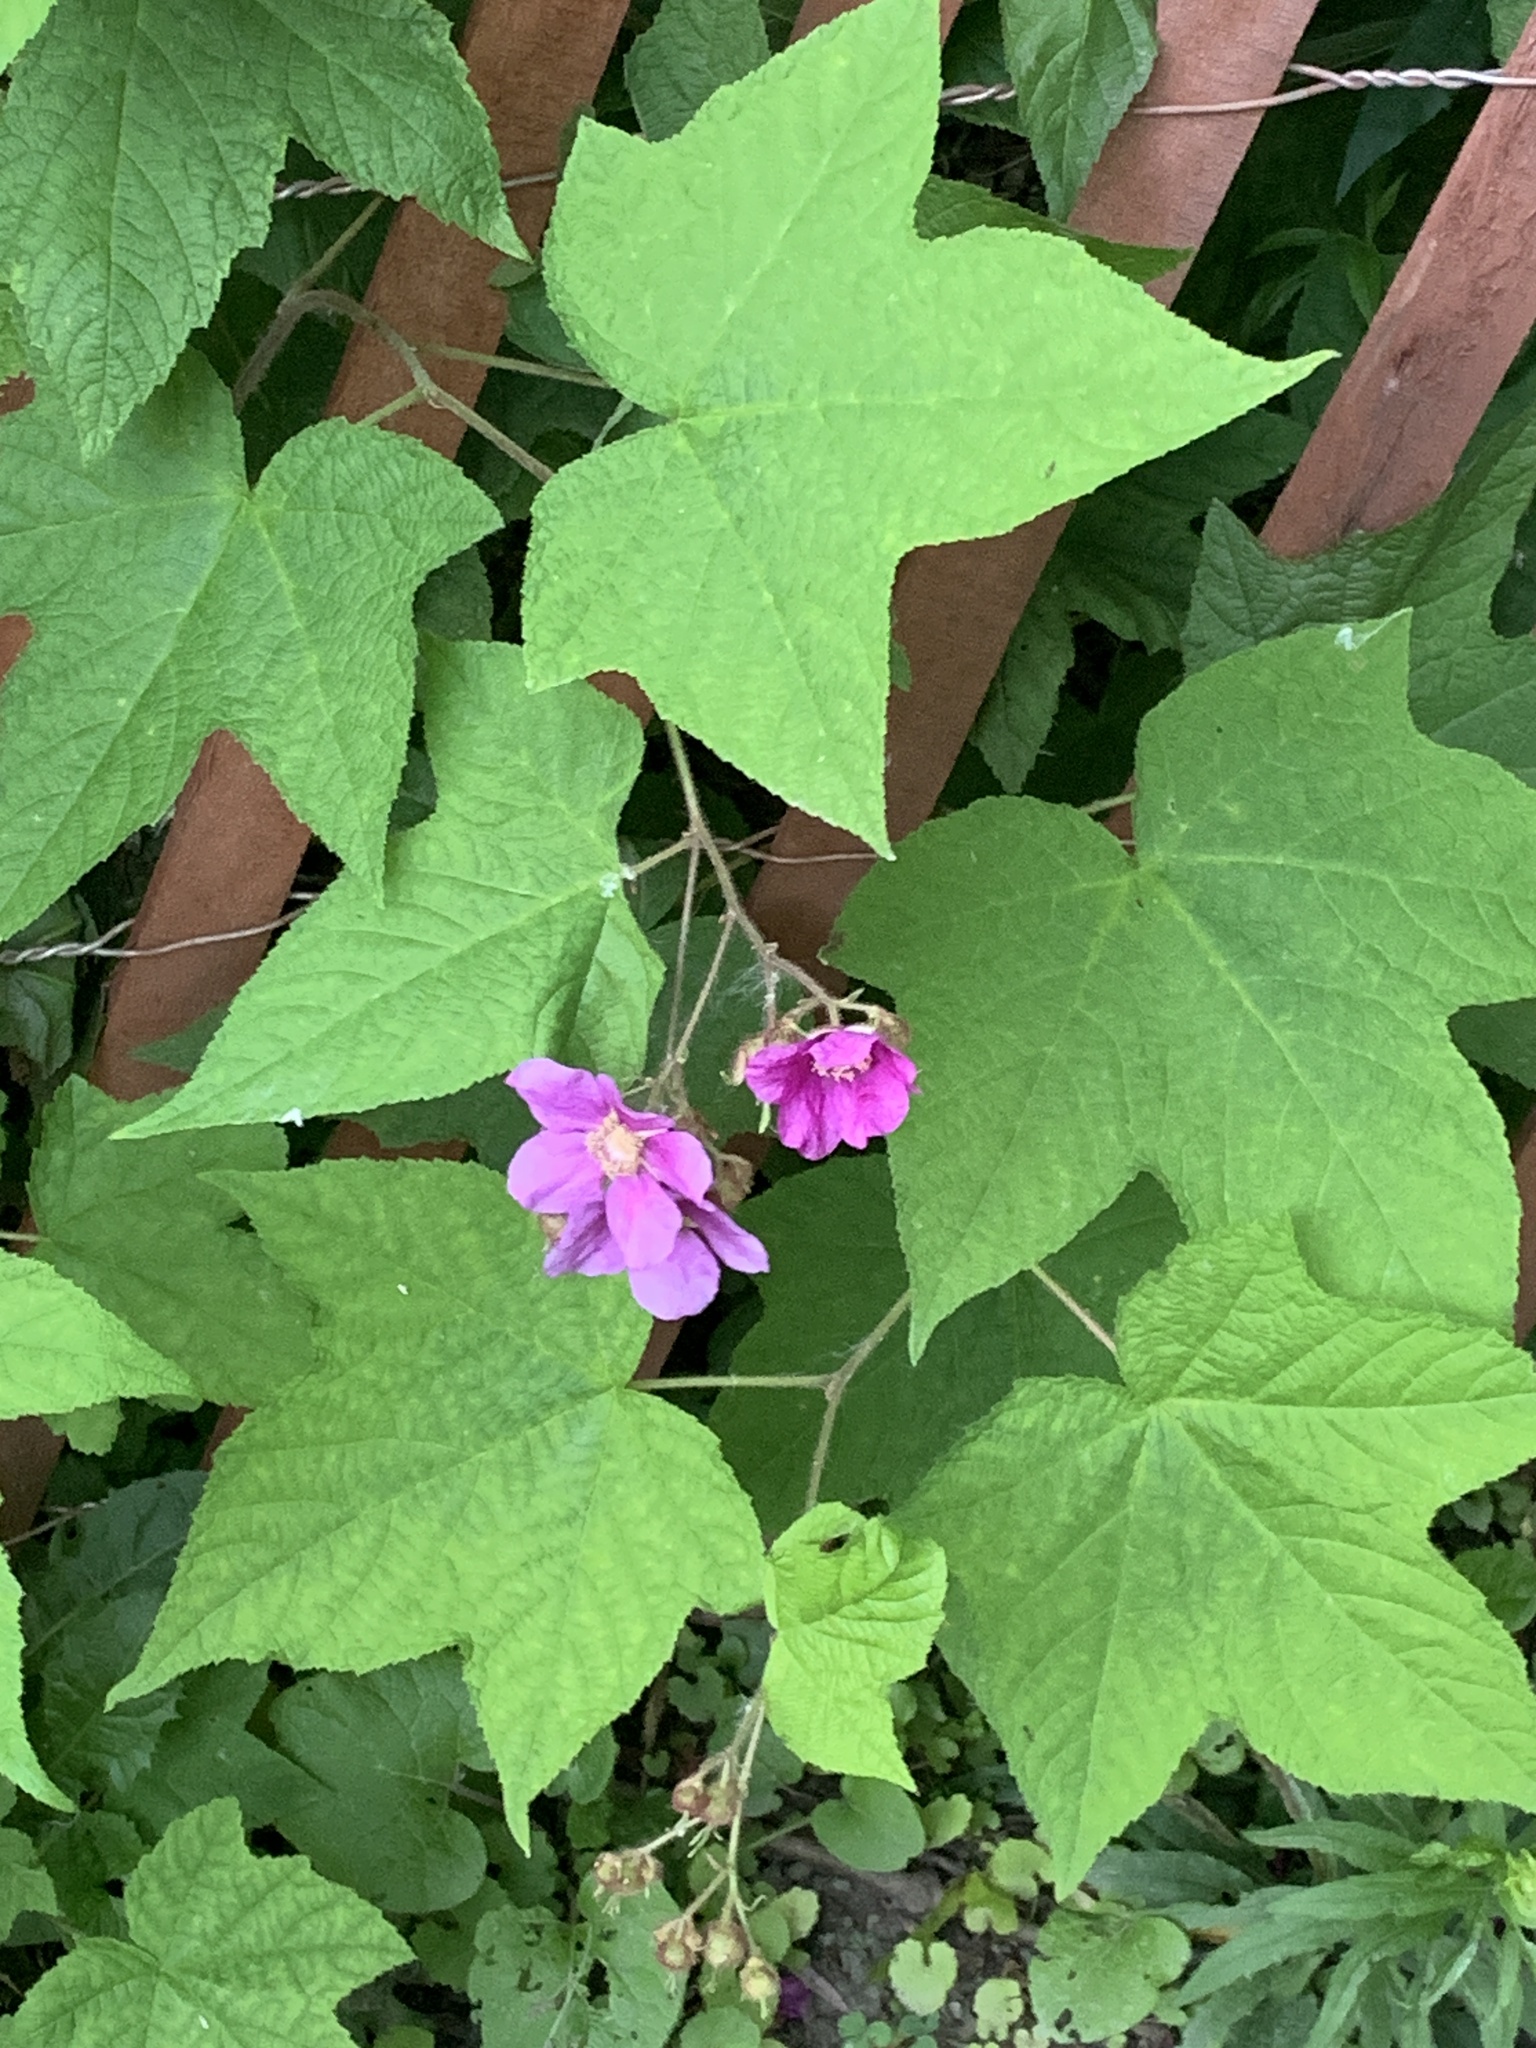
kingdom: Plantae
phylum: Tracheophyta
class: Magnoliopsida
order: Rosales
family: Rosaceae
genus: Rubus
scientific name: Rubus odoratus
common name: Purple-flowered raspberry
